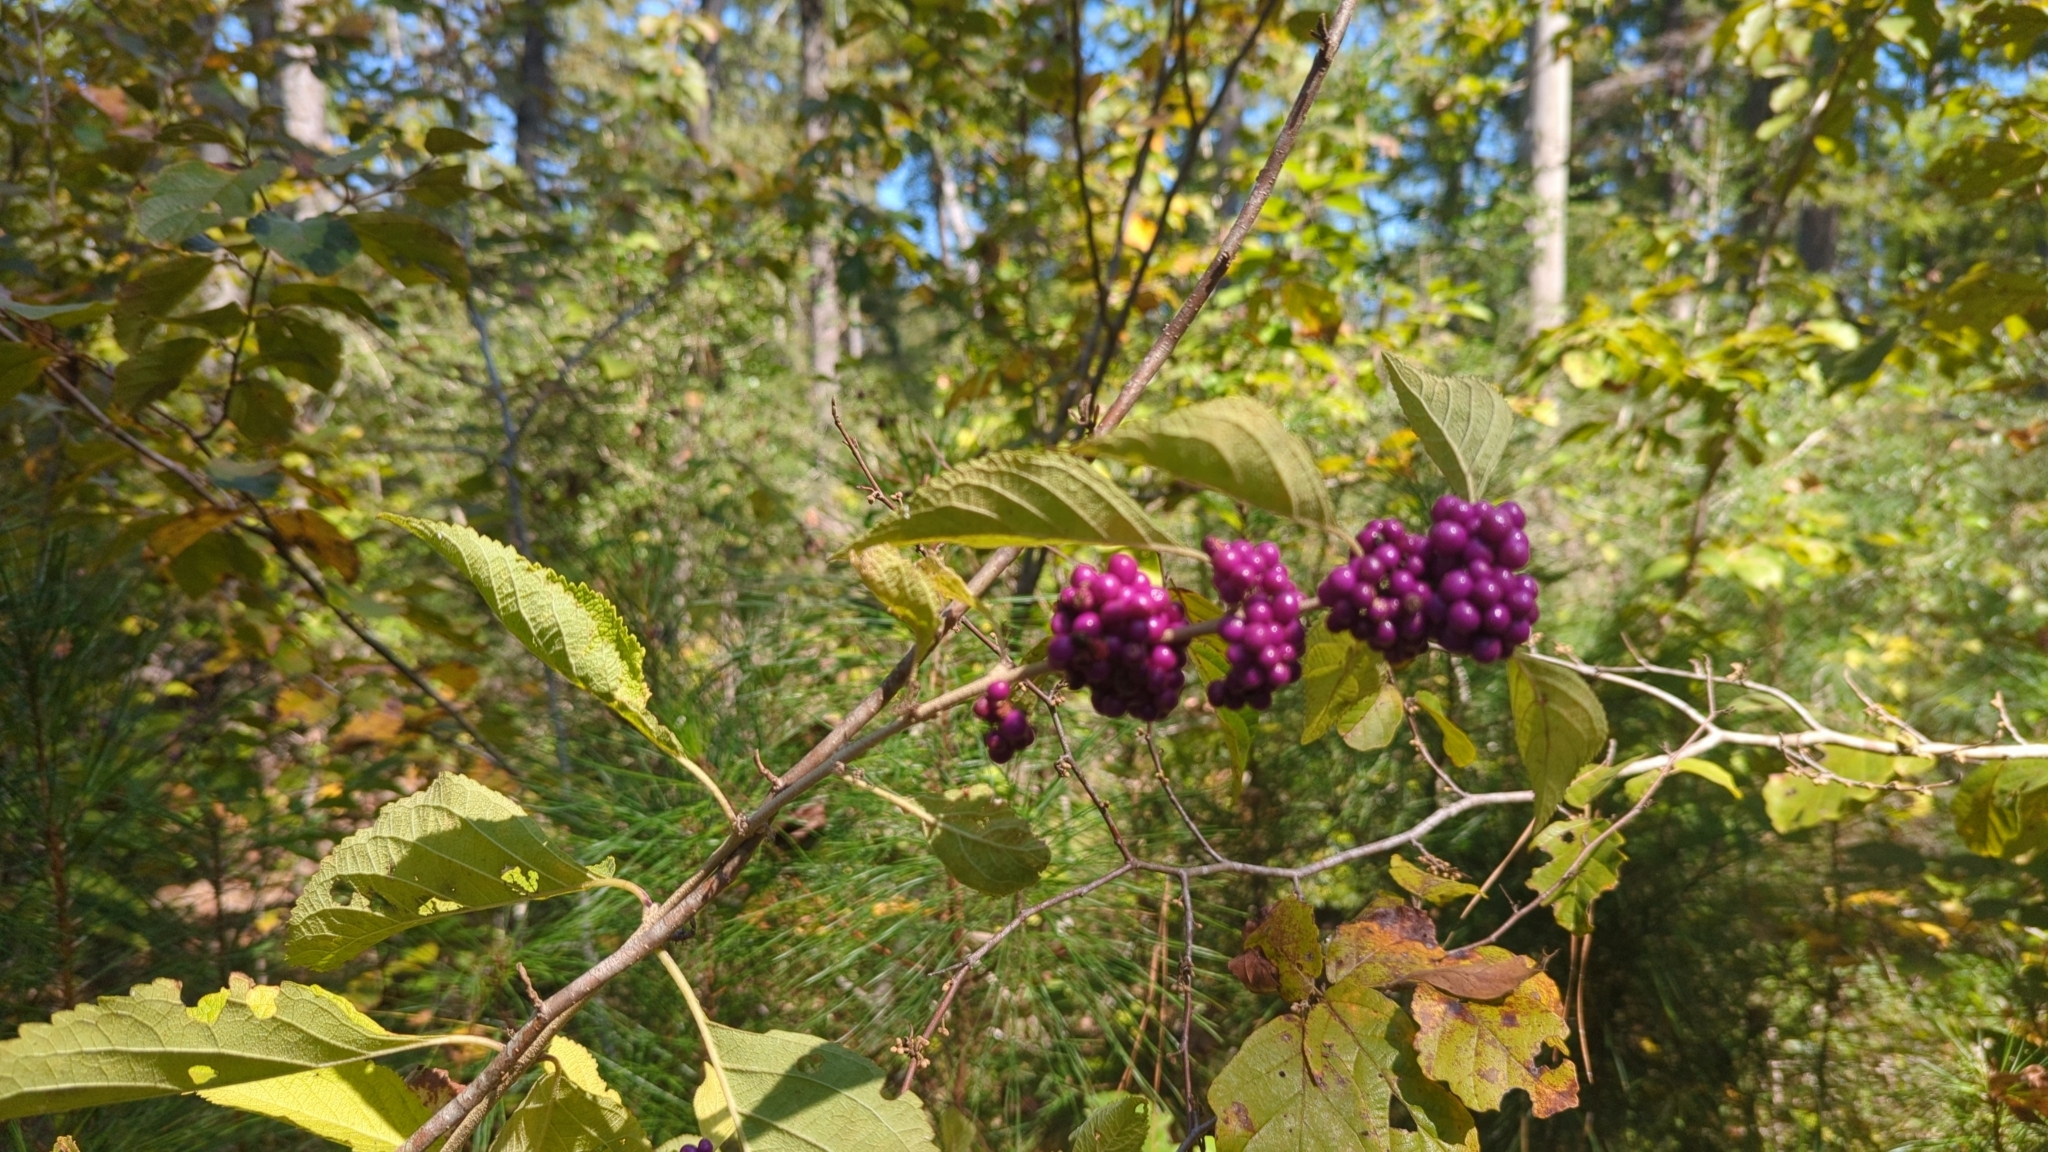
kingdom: Plantae
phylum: Tracheophyta
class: Magnoliopsida
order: Lamiales
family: Lamiaceae
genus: Callicarpa
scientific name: Callicarpa americana
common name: American beautyberry
